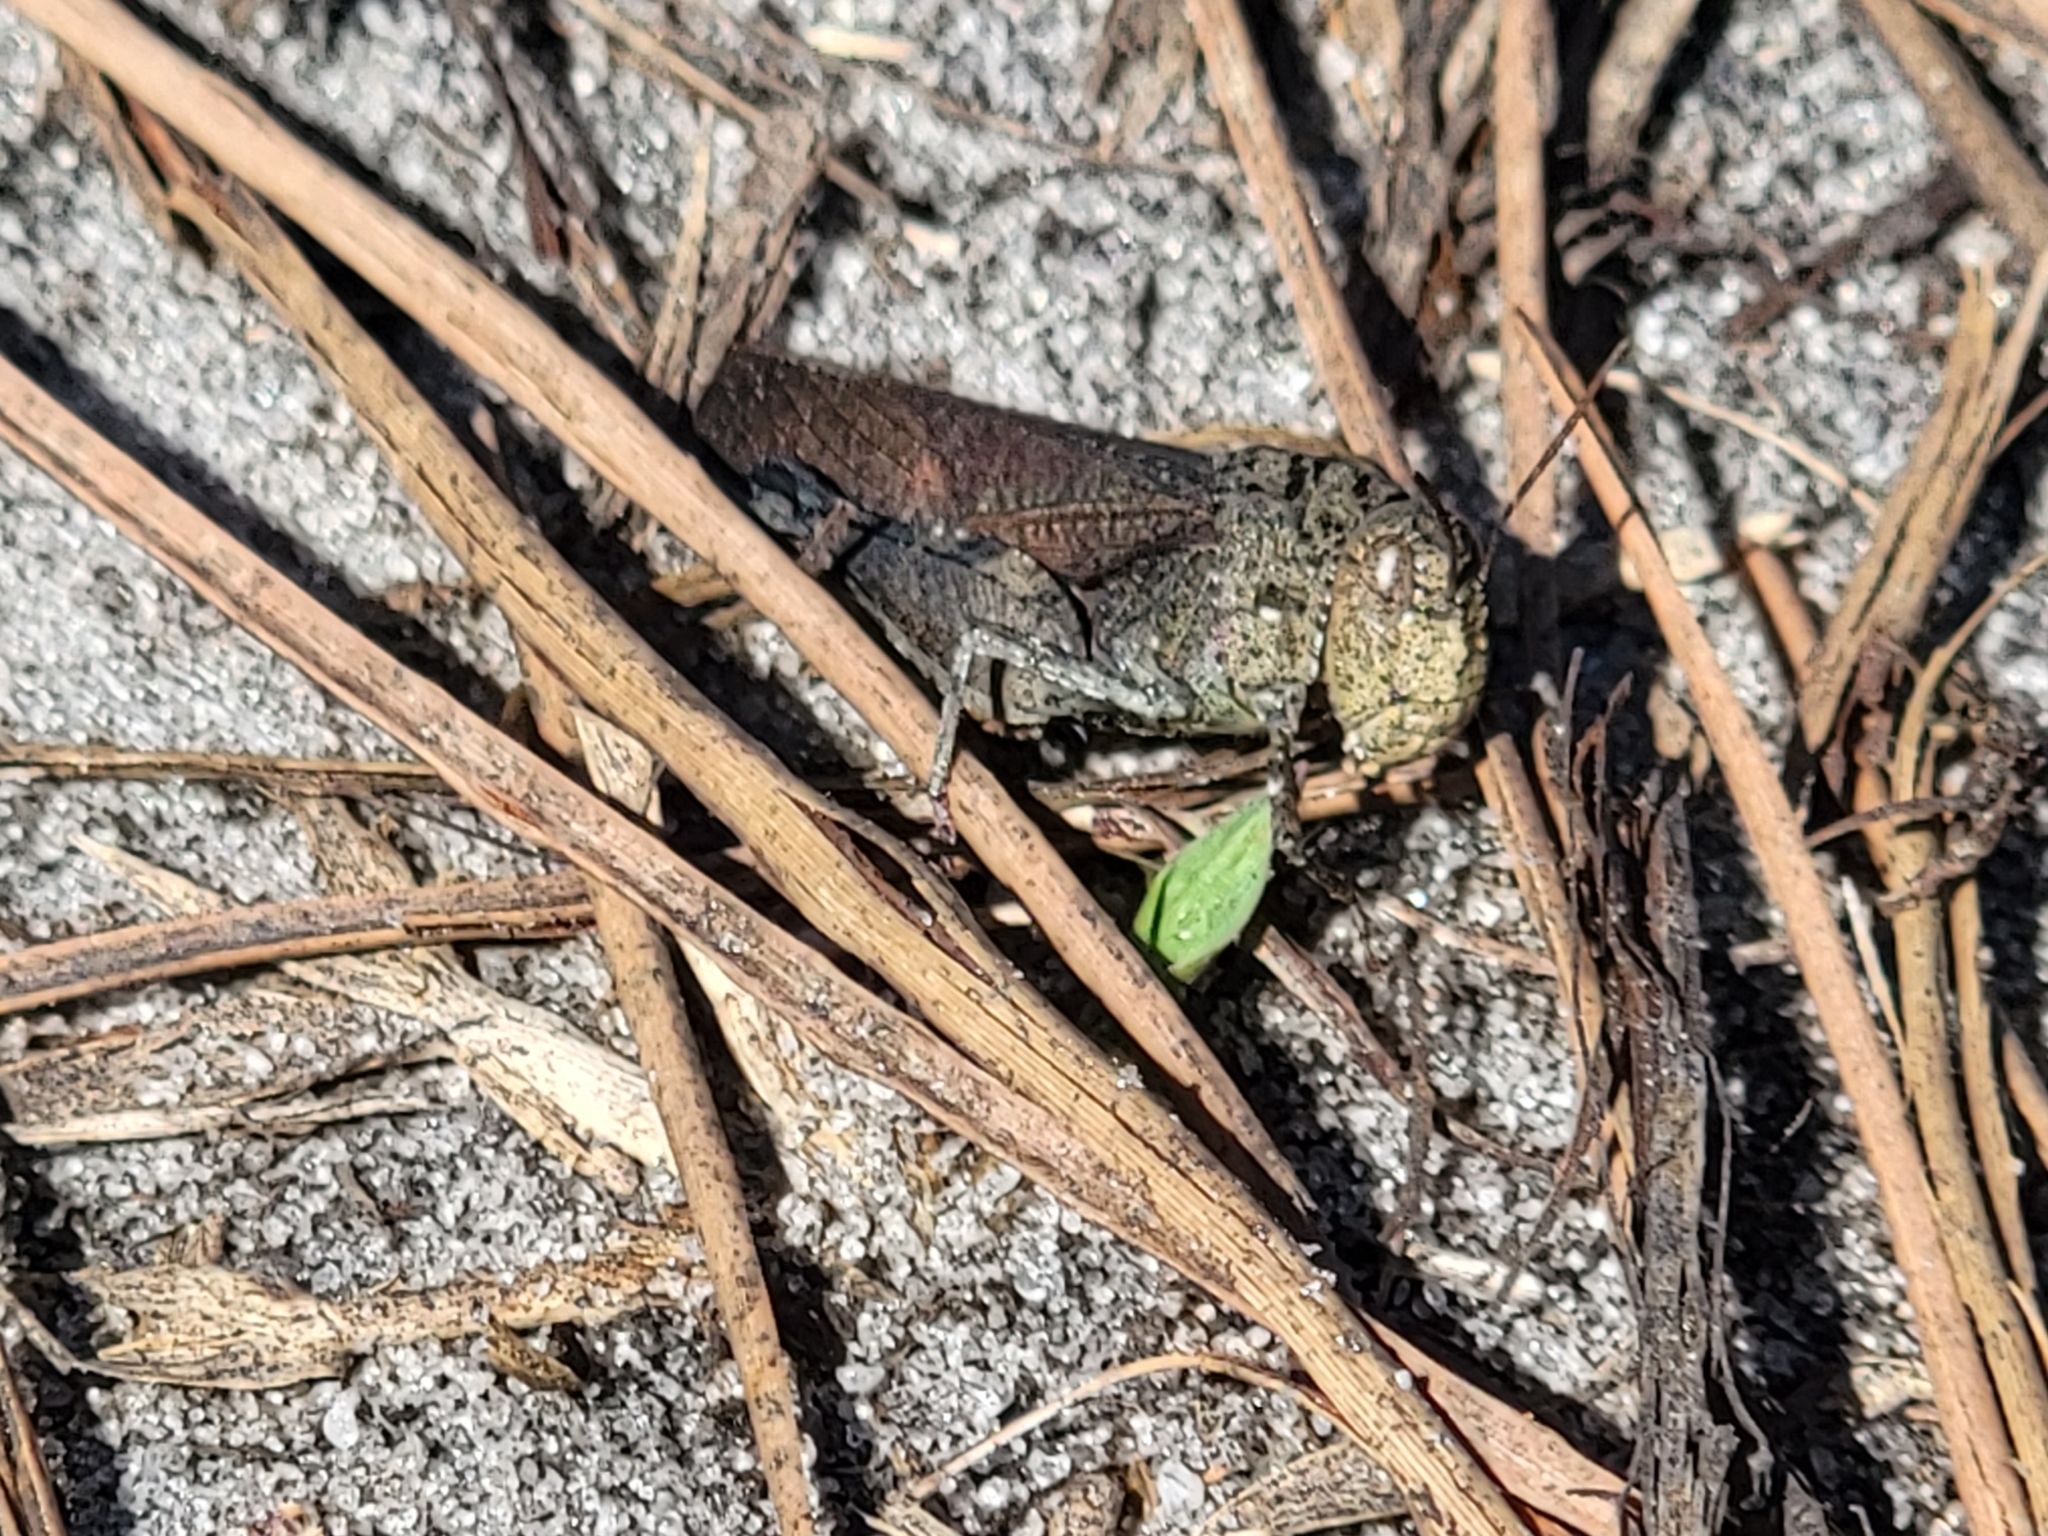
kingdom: Animalia
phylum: Arthropoda
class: Insecta
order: Orthoptera
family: Acrididae
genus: Arphia
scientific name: Arphia granulata
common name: Southern yellow-winged grasshopper
